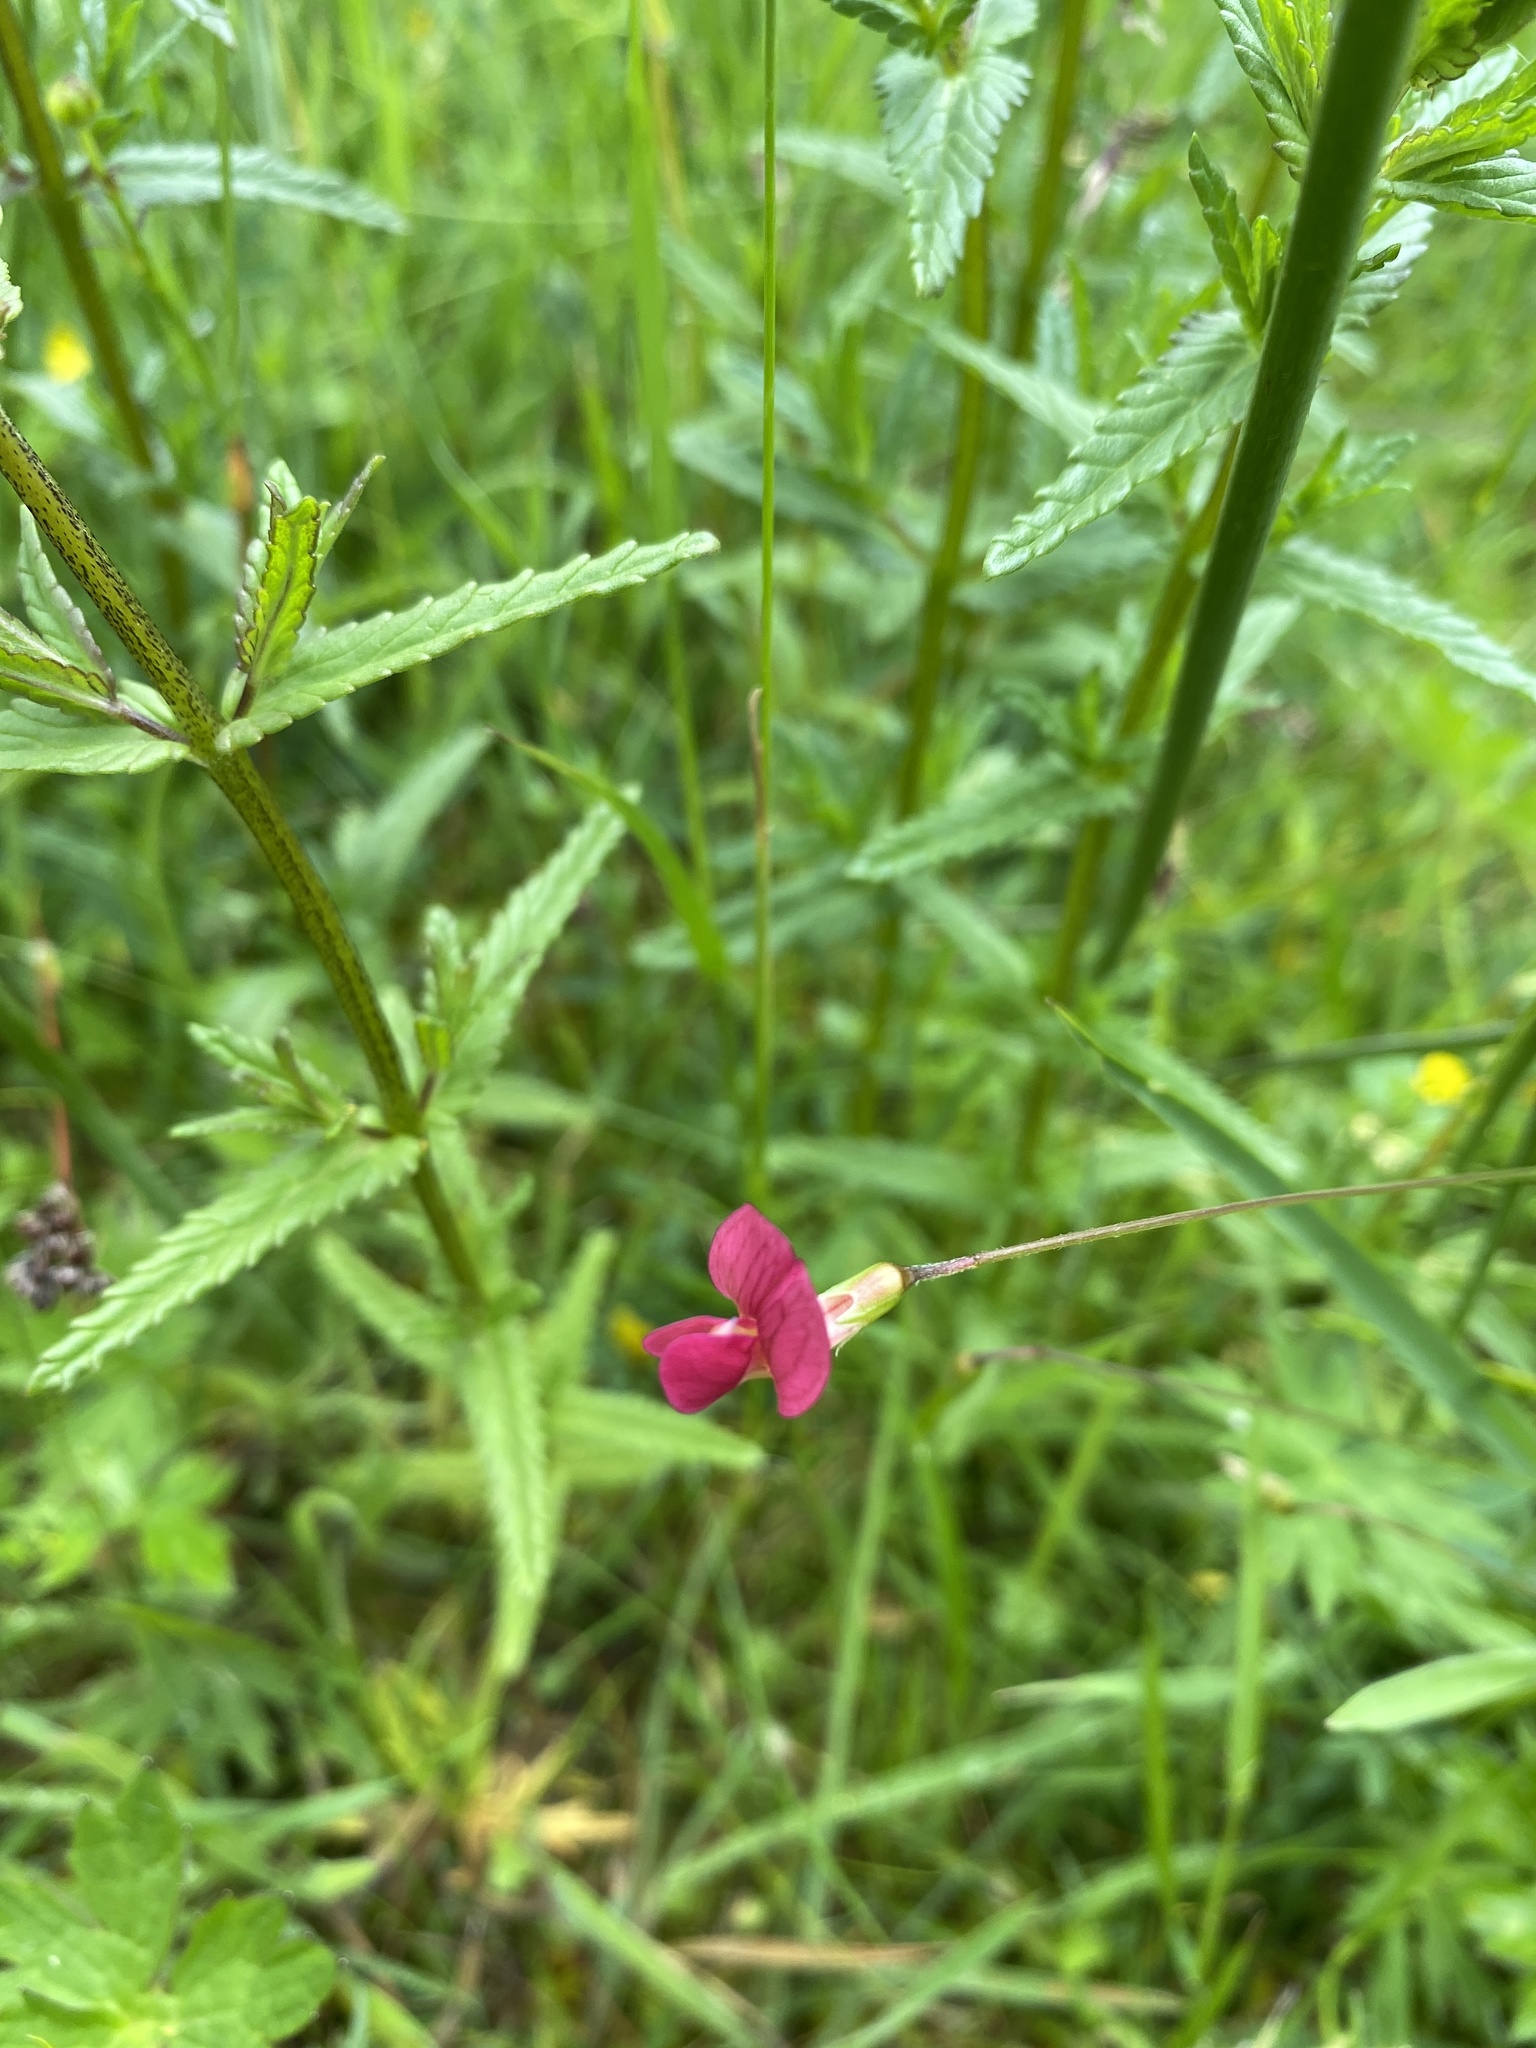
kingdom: Plantae
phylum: Tracheophyta
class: Magnoliopsida
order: Fabales
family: Fabaceae
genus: Lathyrus
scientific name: Lathyrus nissolia
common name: Grass vetchling
